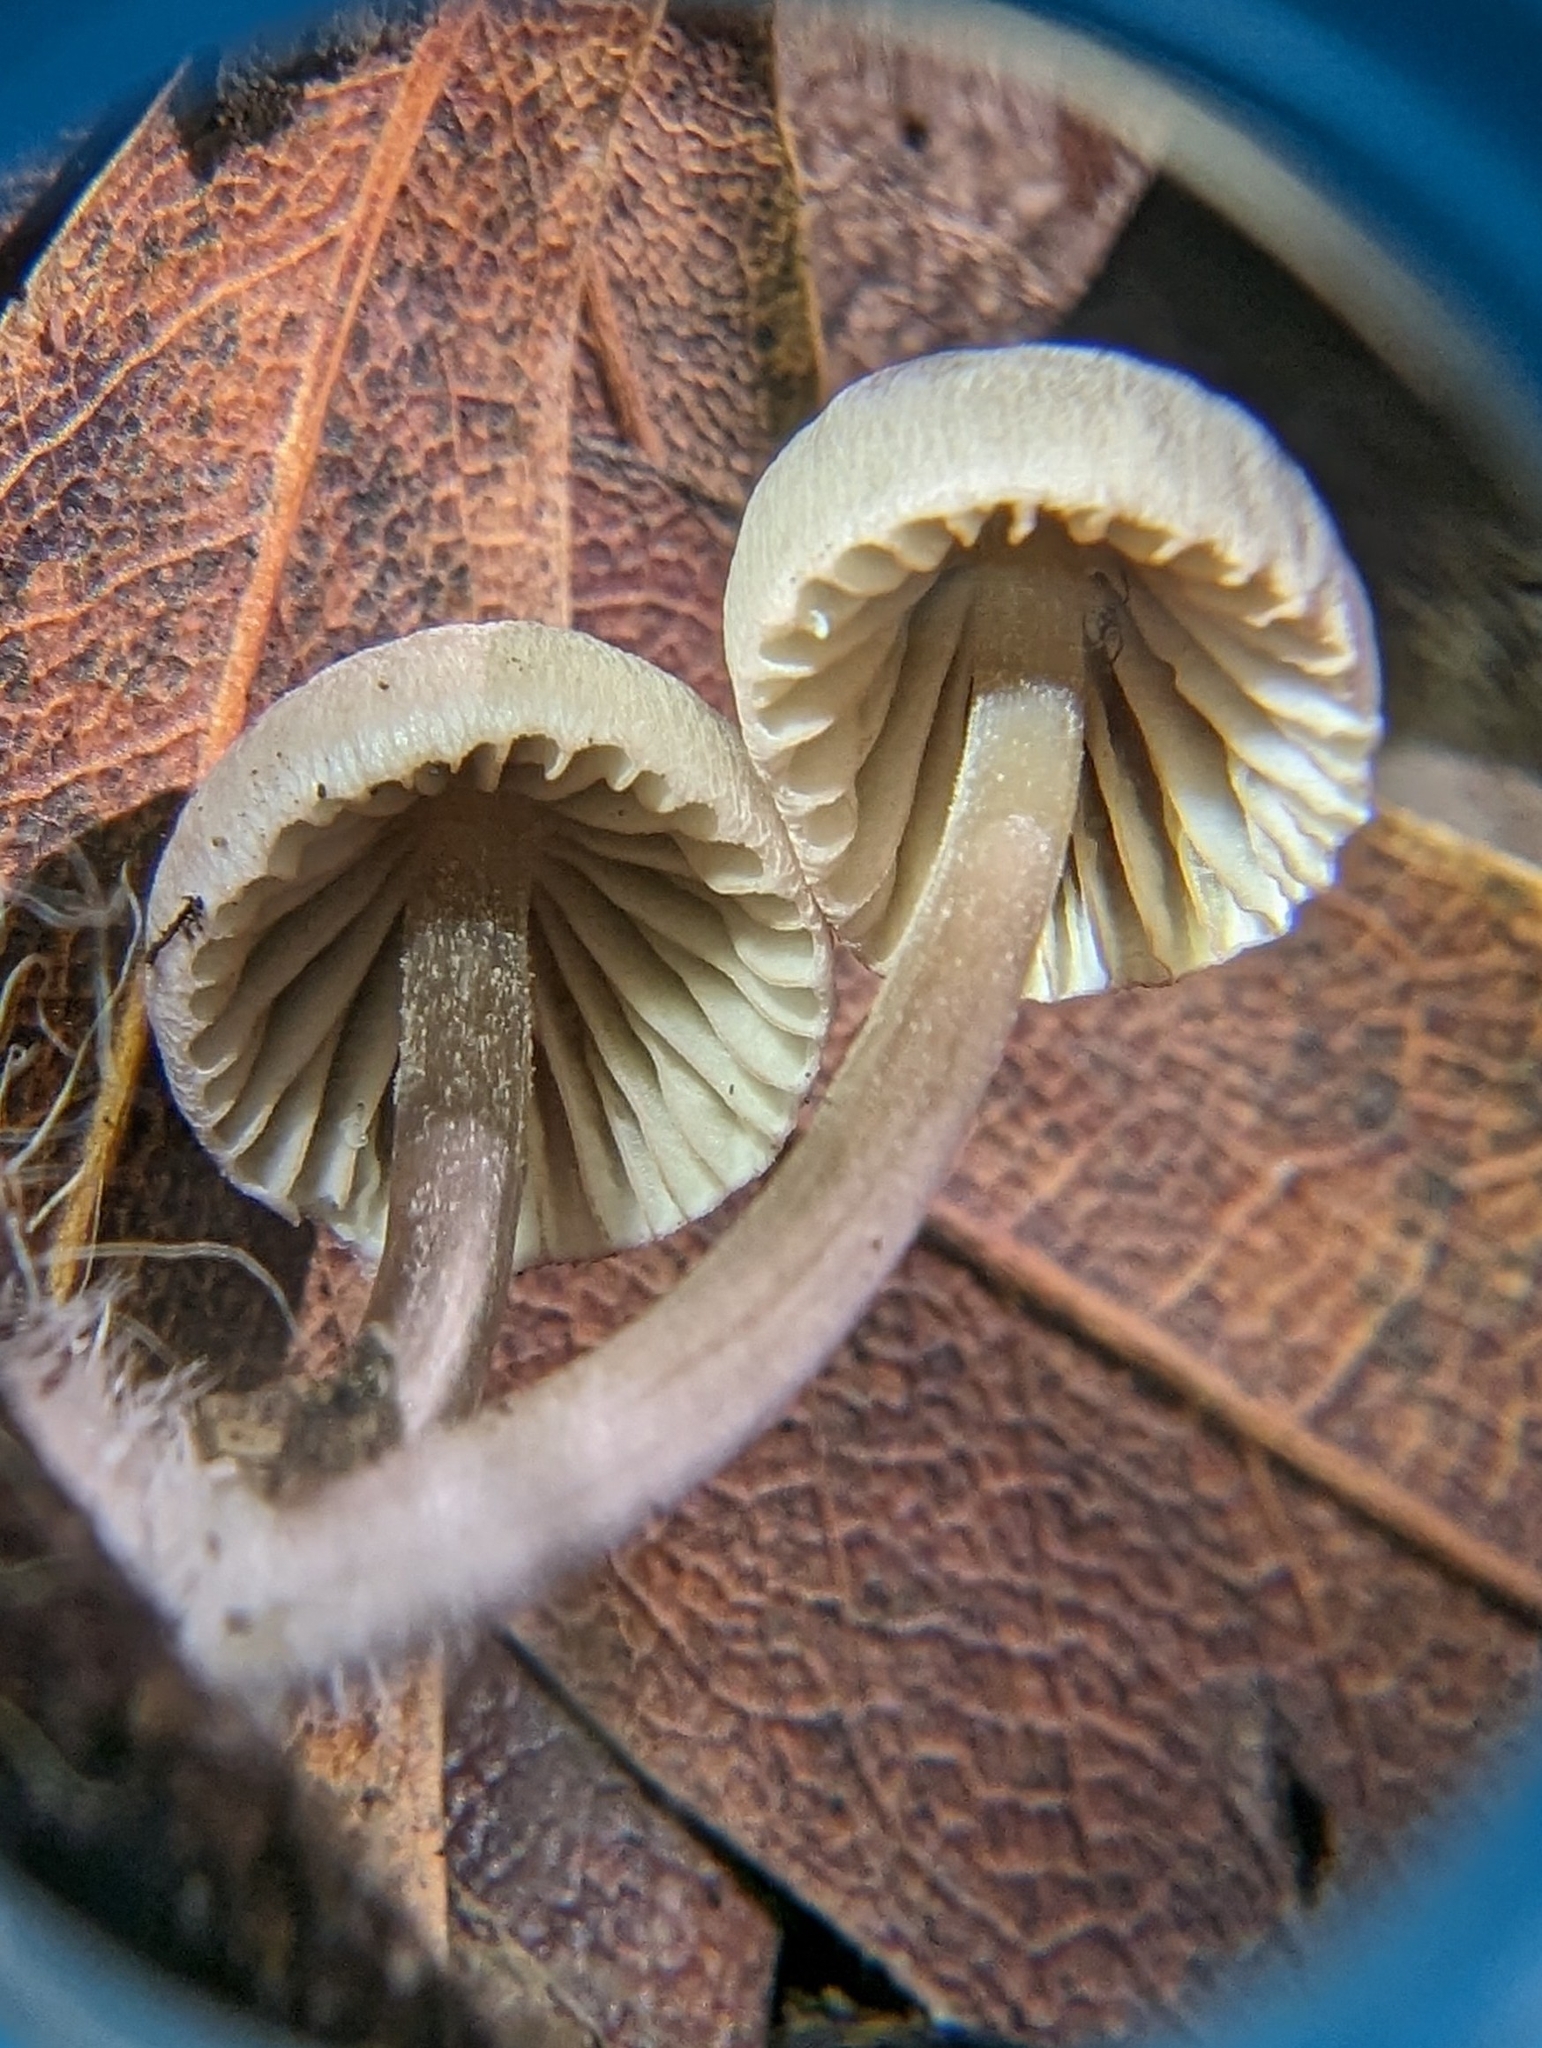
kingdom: Fungi
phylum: Basidiomycota
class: Agaricomycetes
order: Agaricales
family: Mycenaceae
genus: Mycena
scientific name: Mycena capillaripes
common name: Pinkedge bonnet
